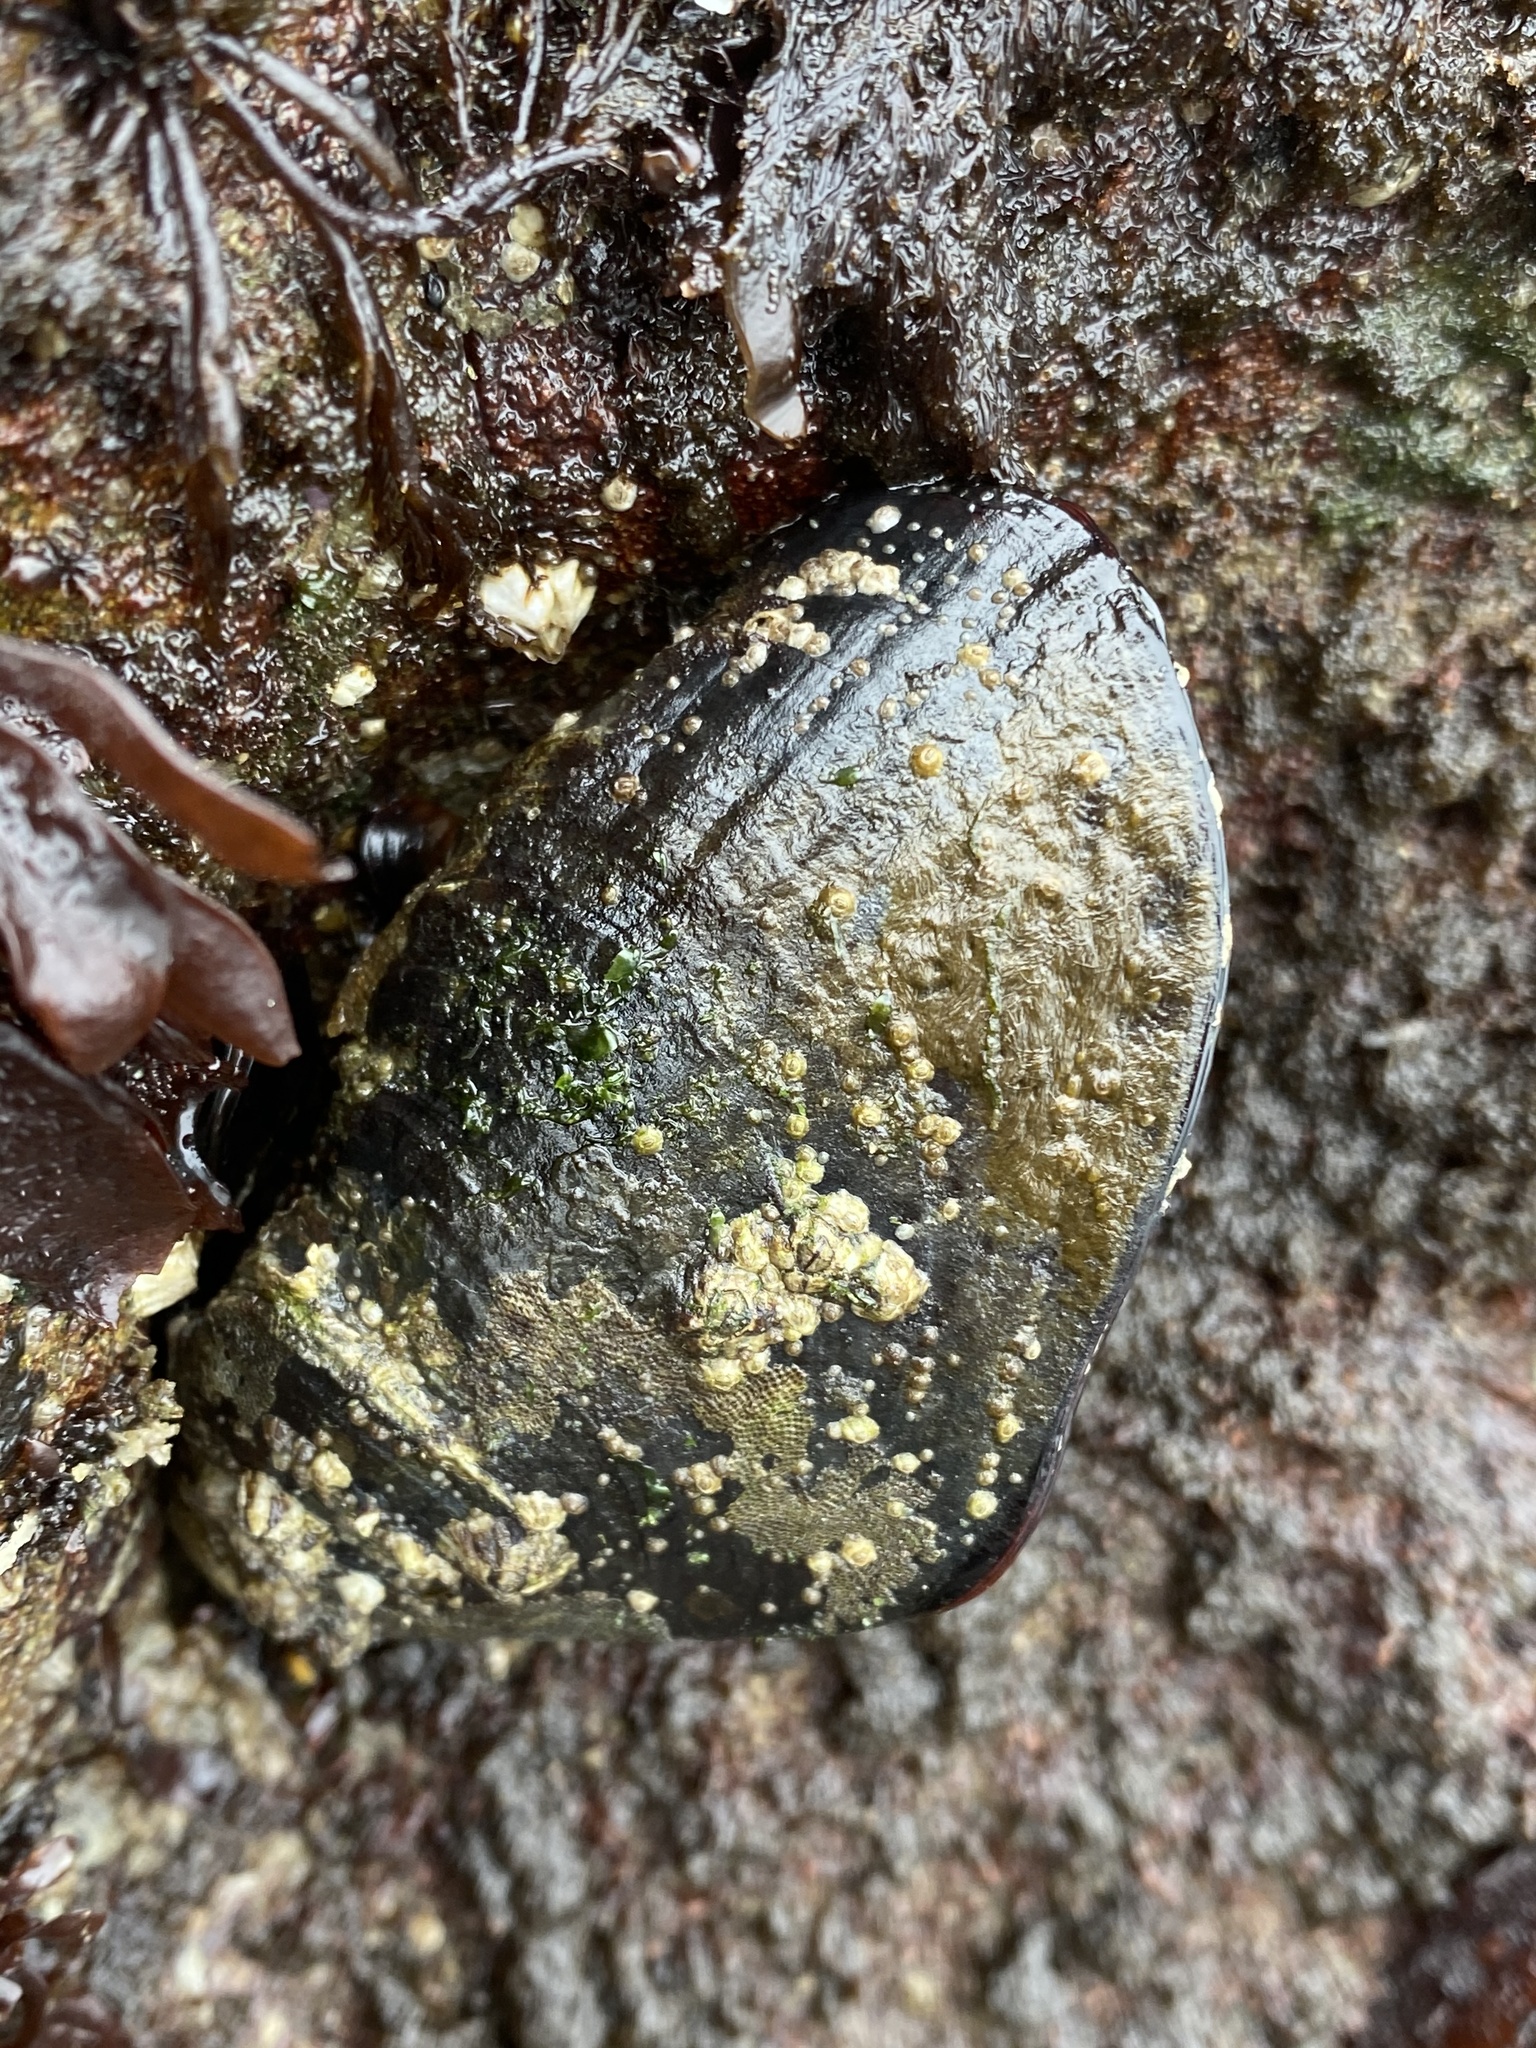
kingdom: Animalia
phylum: Mollusca
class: Bivalvia
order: Mytilida
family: Mytilidae
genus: Mytilus
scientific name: Mytilus californianus
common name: California mussel
